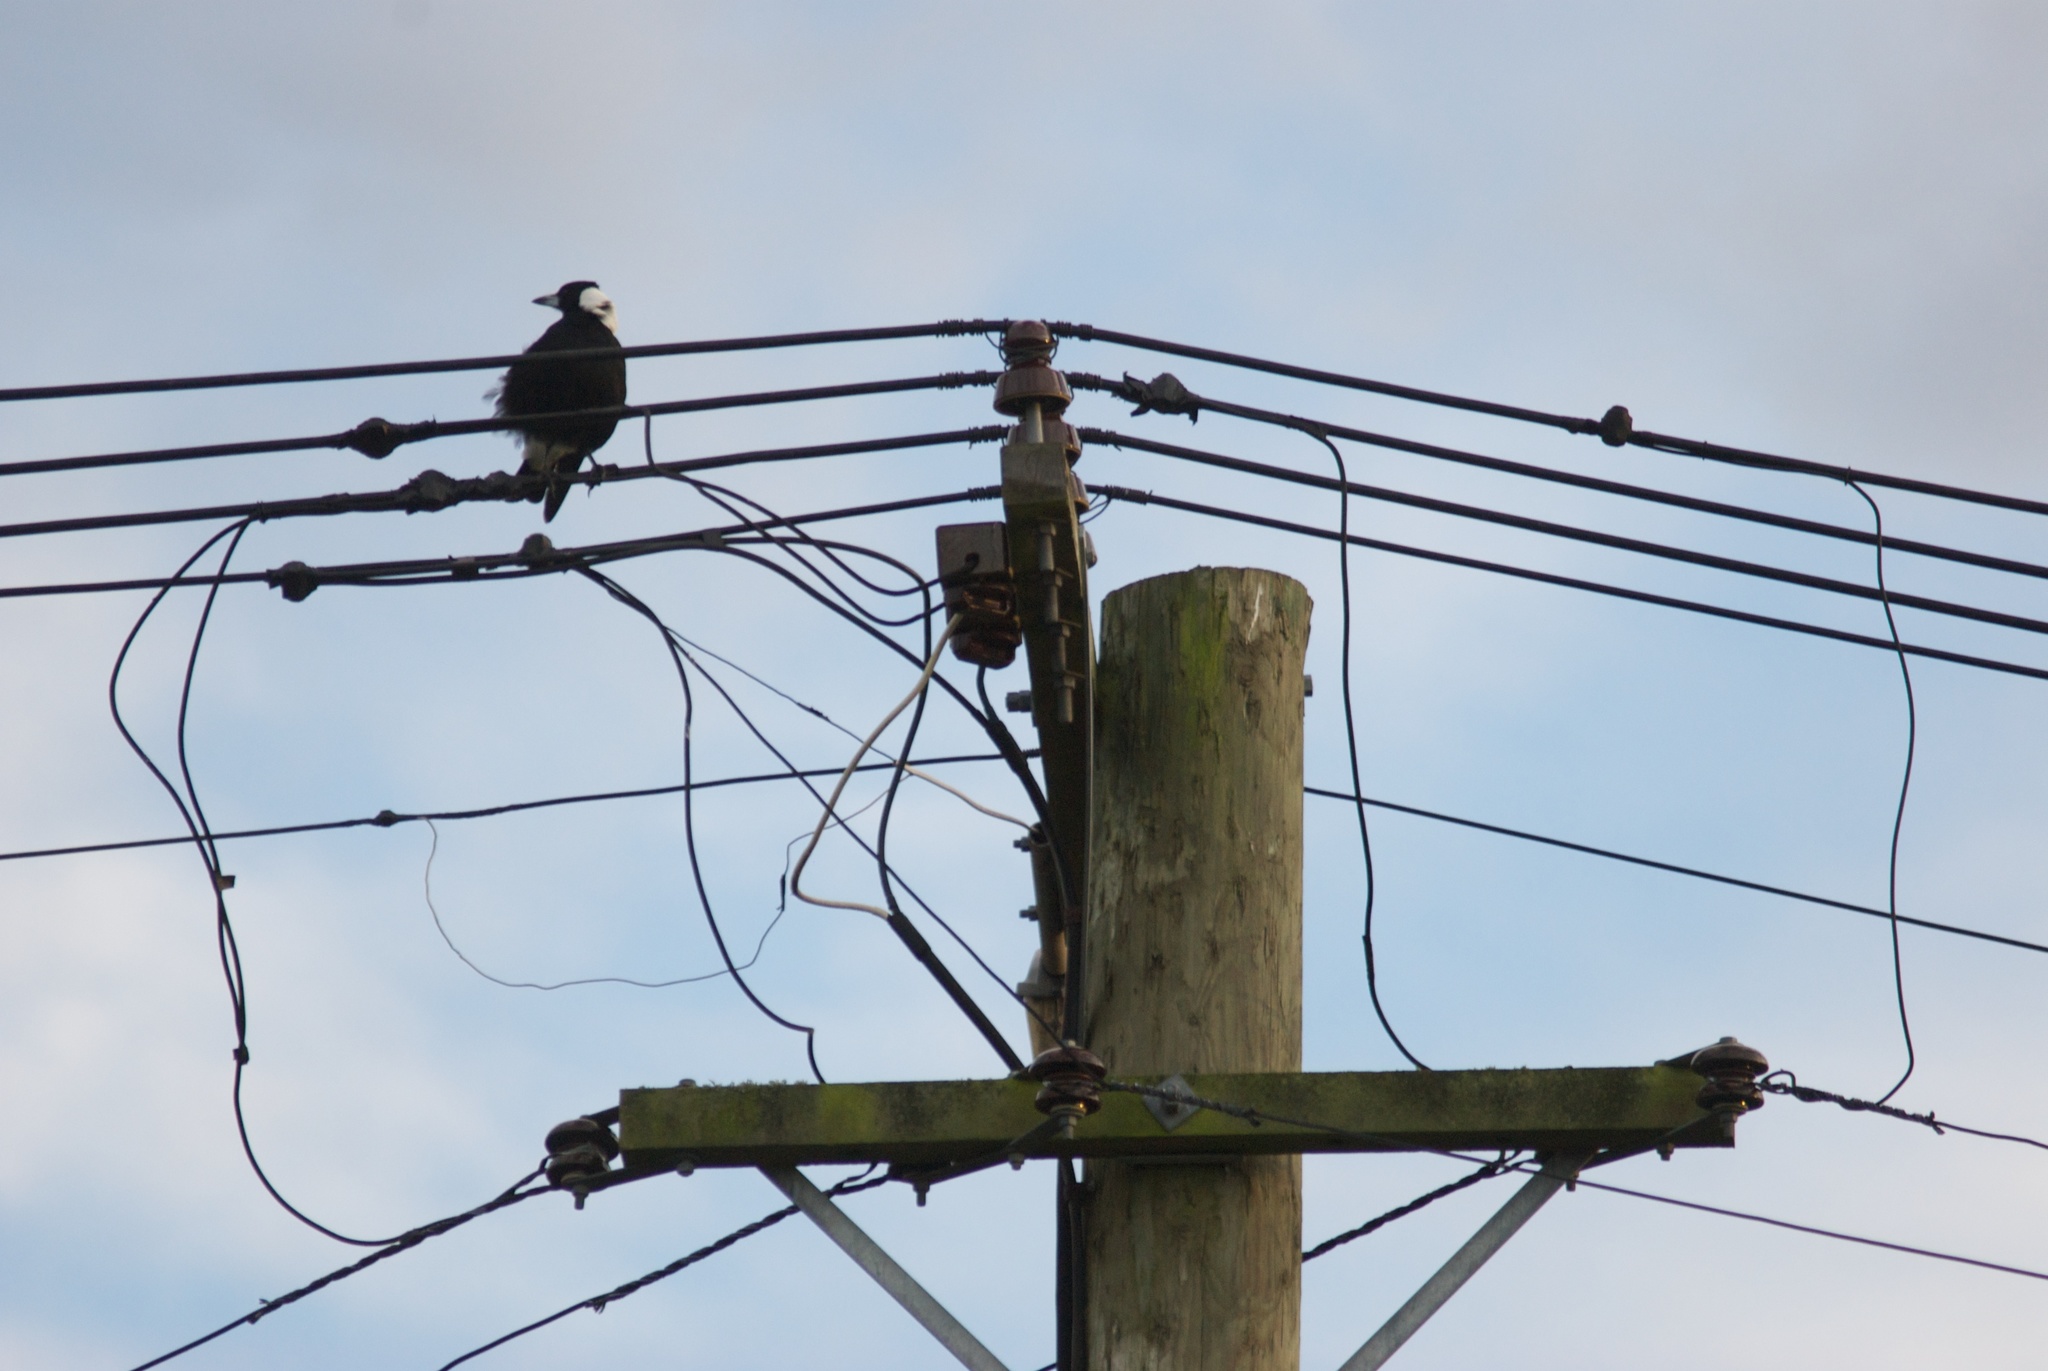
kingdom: Animalia
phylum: Chordata
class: Aves
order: Passeriformes
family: Cracticidae
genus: Gymnorhina
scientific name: Gymnorhina tibicen
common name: Australian magpie
